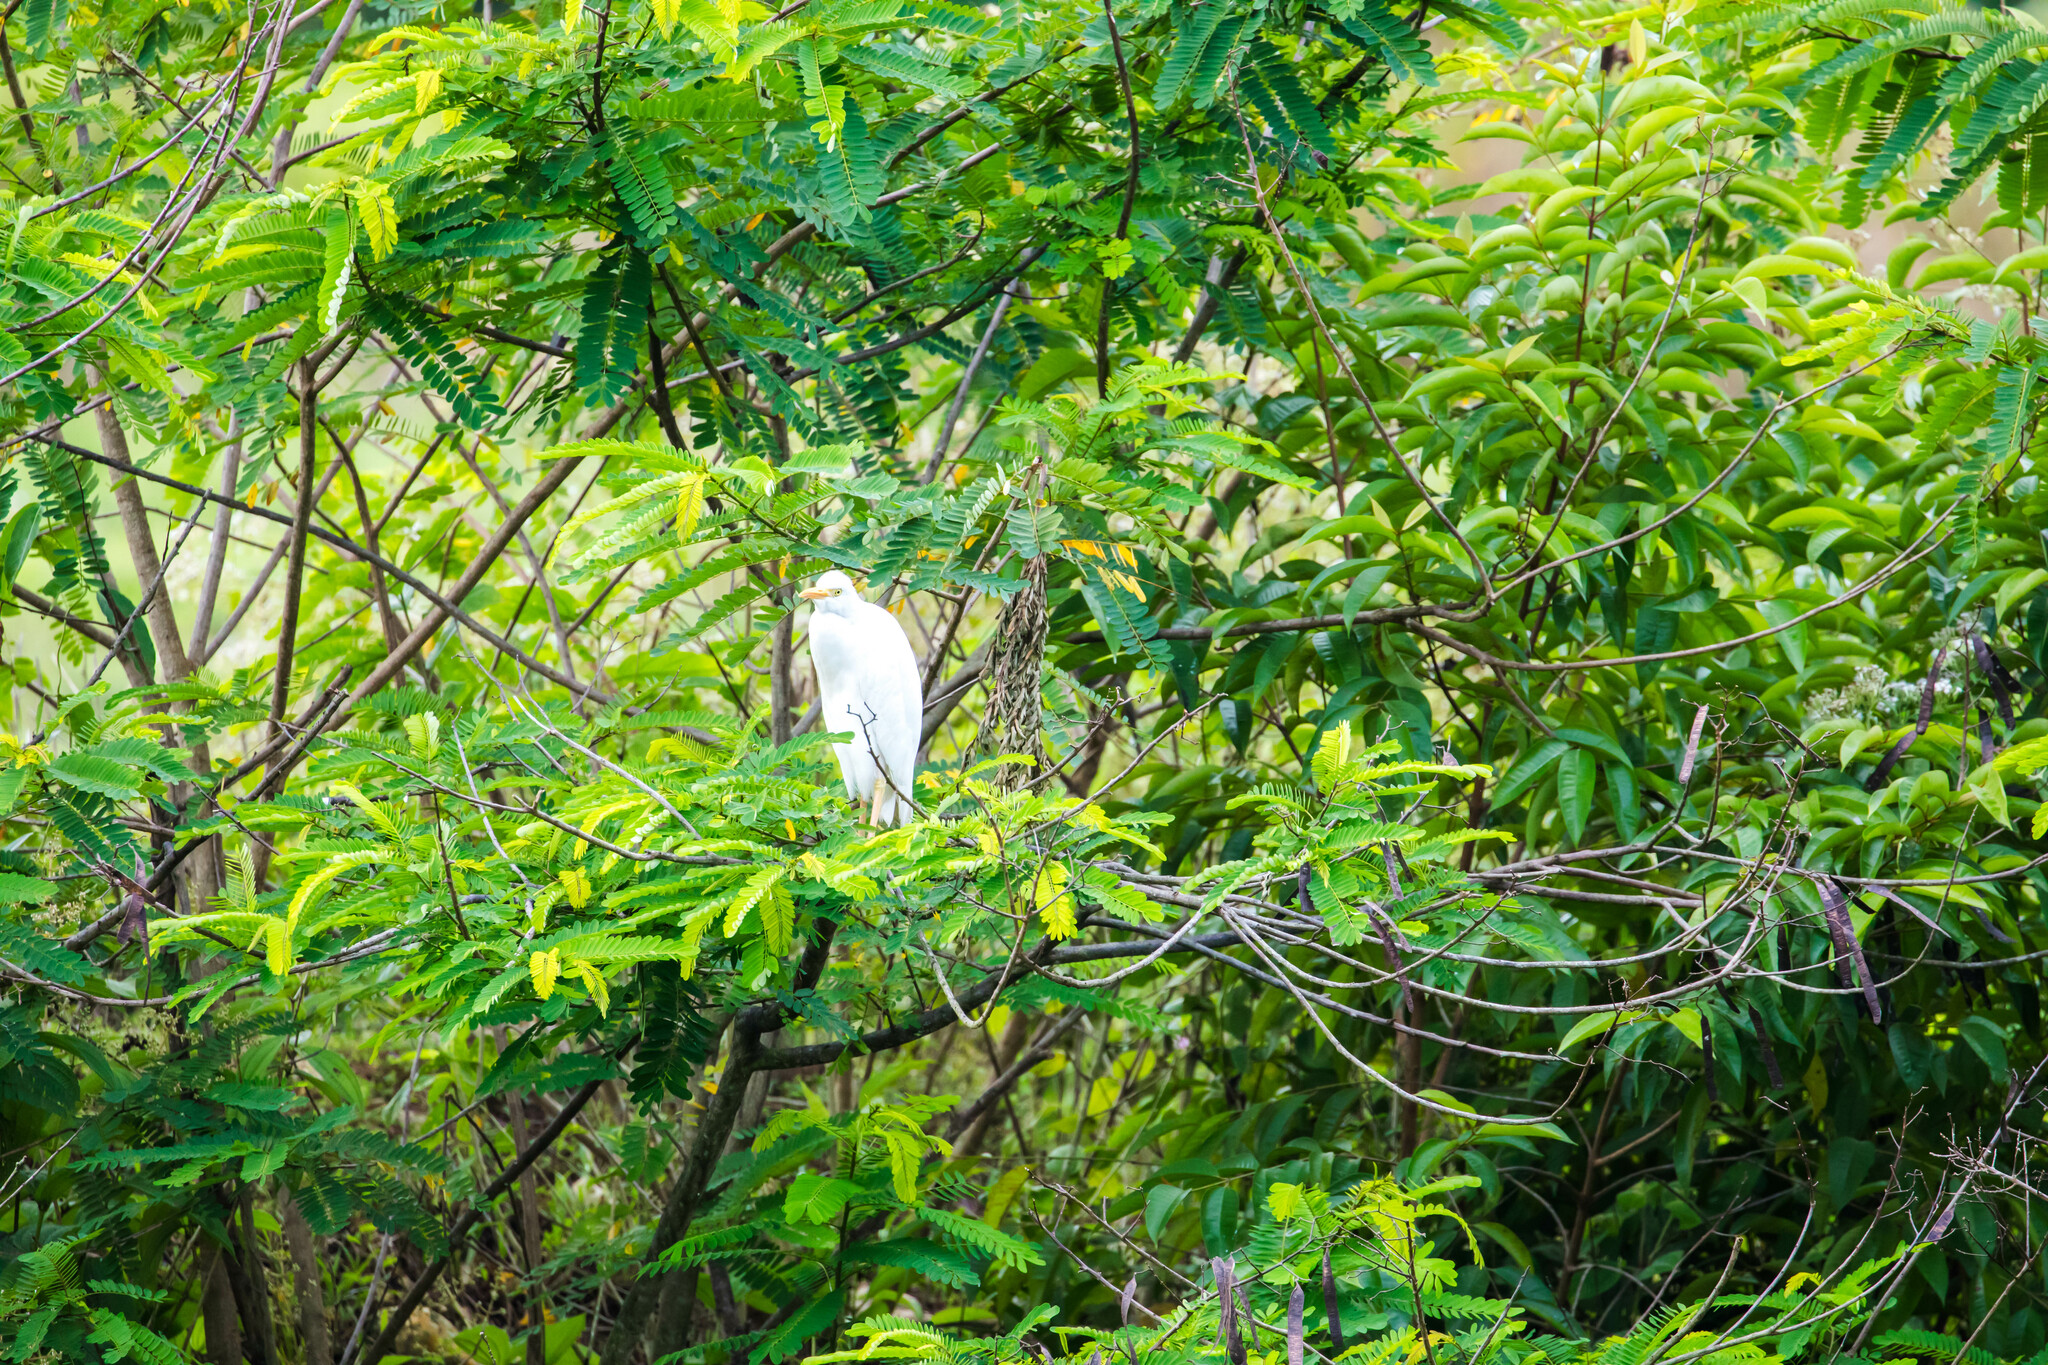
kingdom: Animalia
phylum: Chordata
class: Aves
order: Pelecaniformes
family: Ardeidae
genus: Bubulcus
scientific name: Bubulcus ibis
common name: Cattle egret
